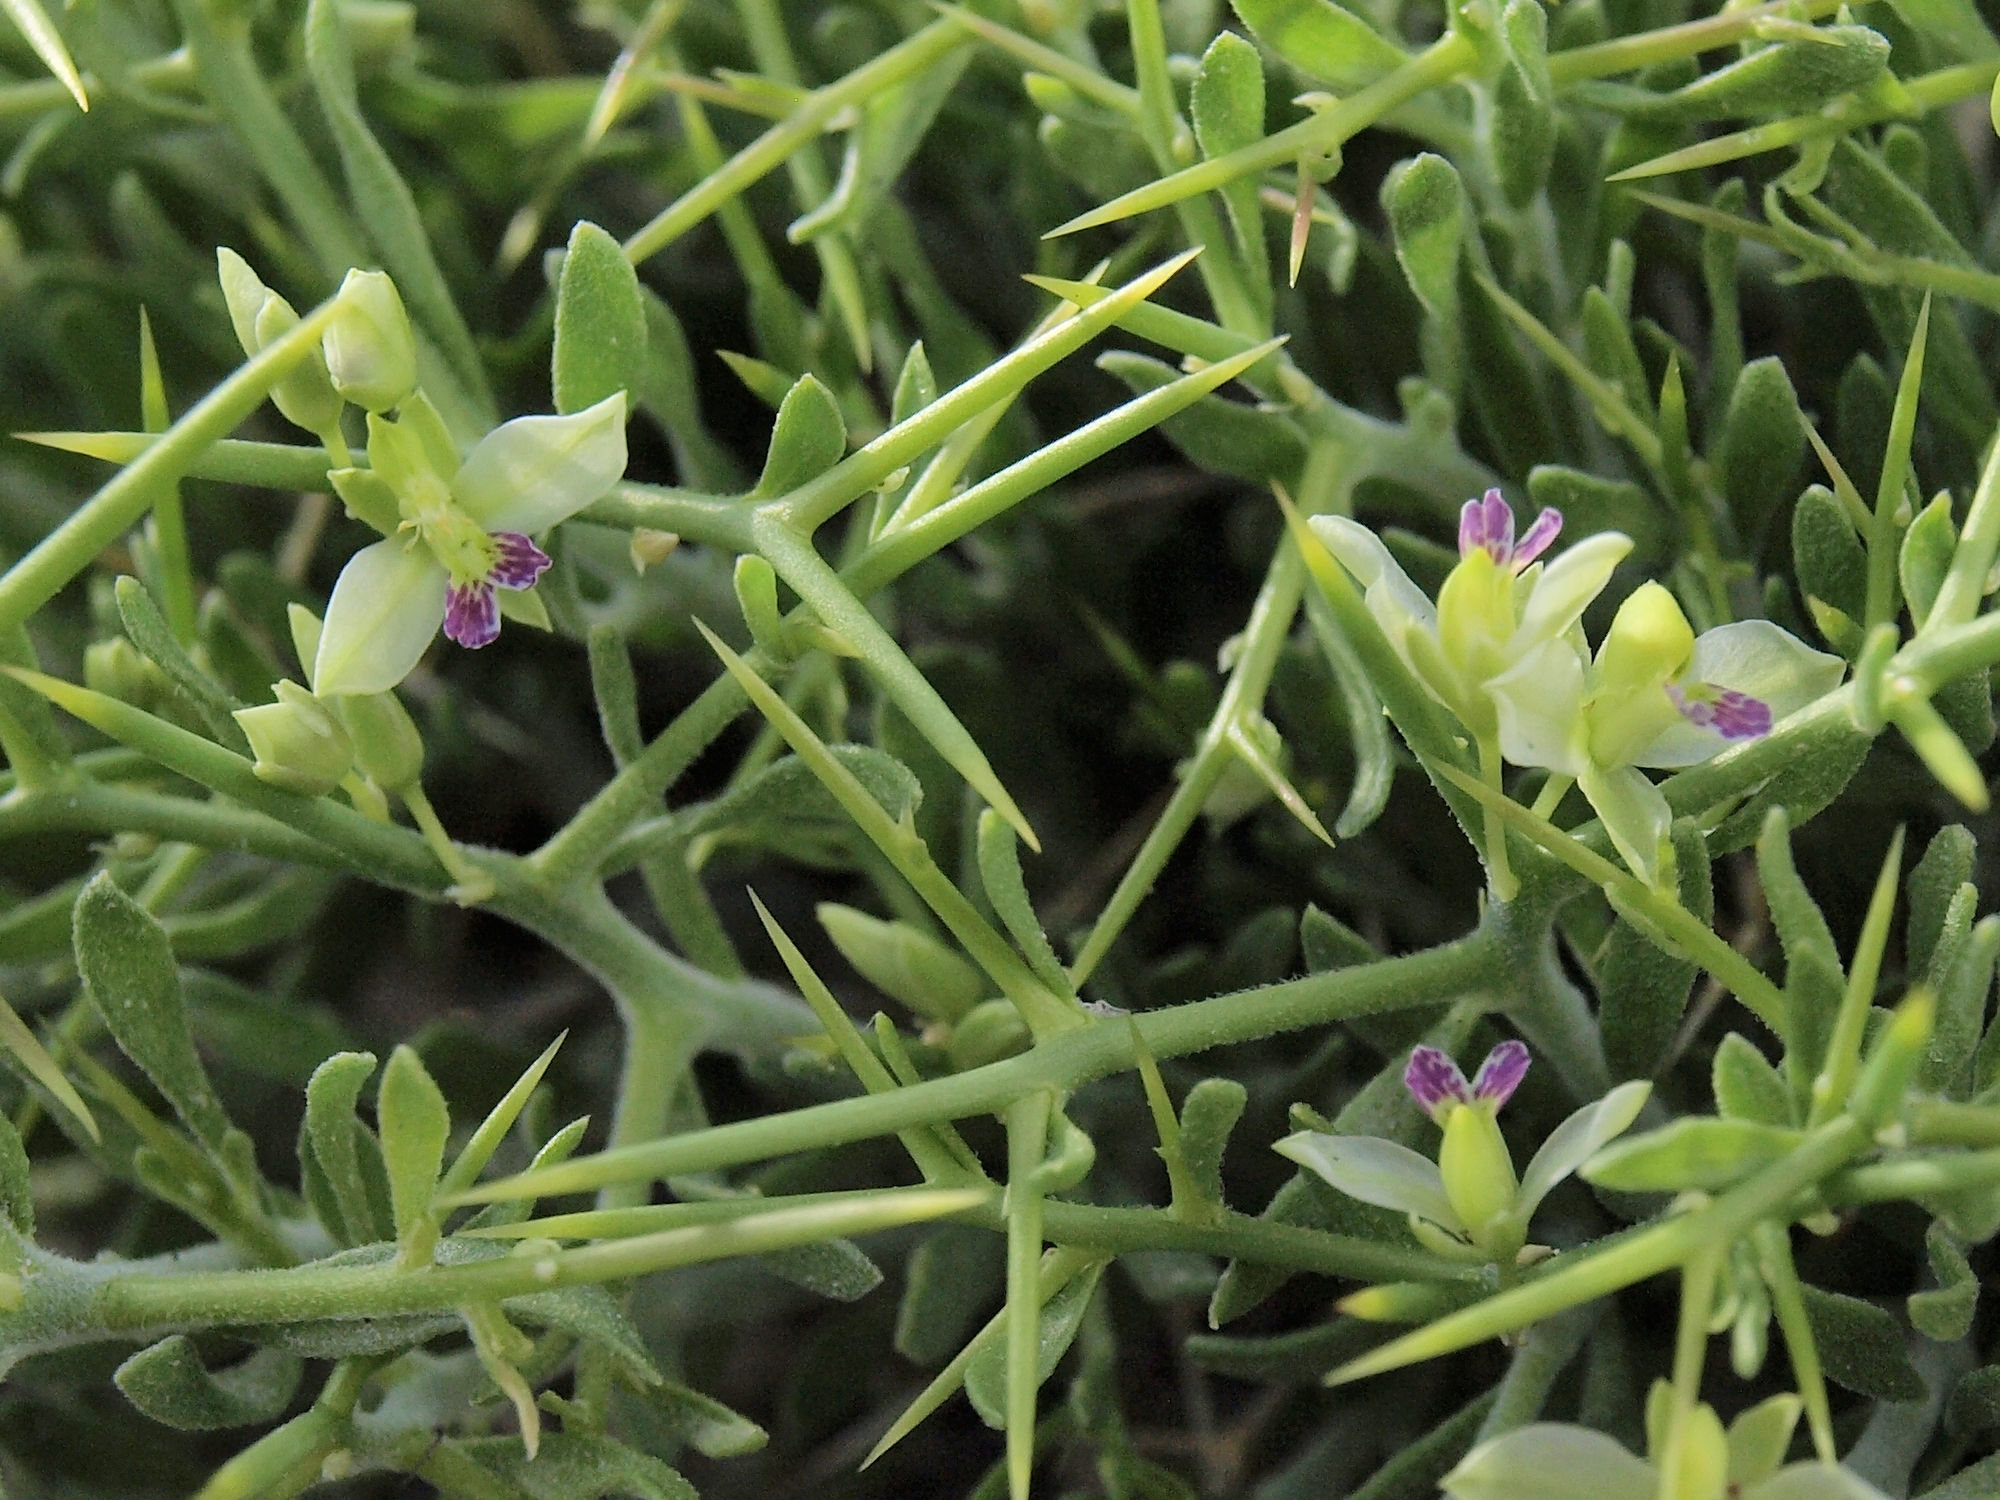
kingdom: Plantae
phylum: Tracheophyta
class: Magnoliopsida
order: Fabales
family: Polygalaceae
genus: Rhinotropis
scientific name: Rhinotropis intermontana
